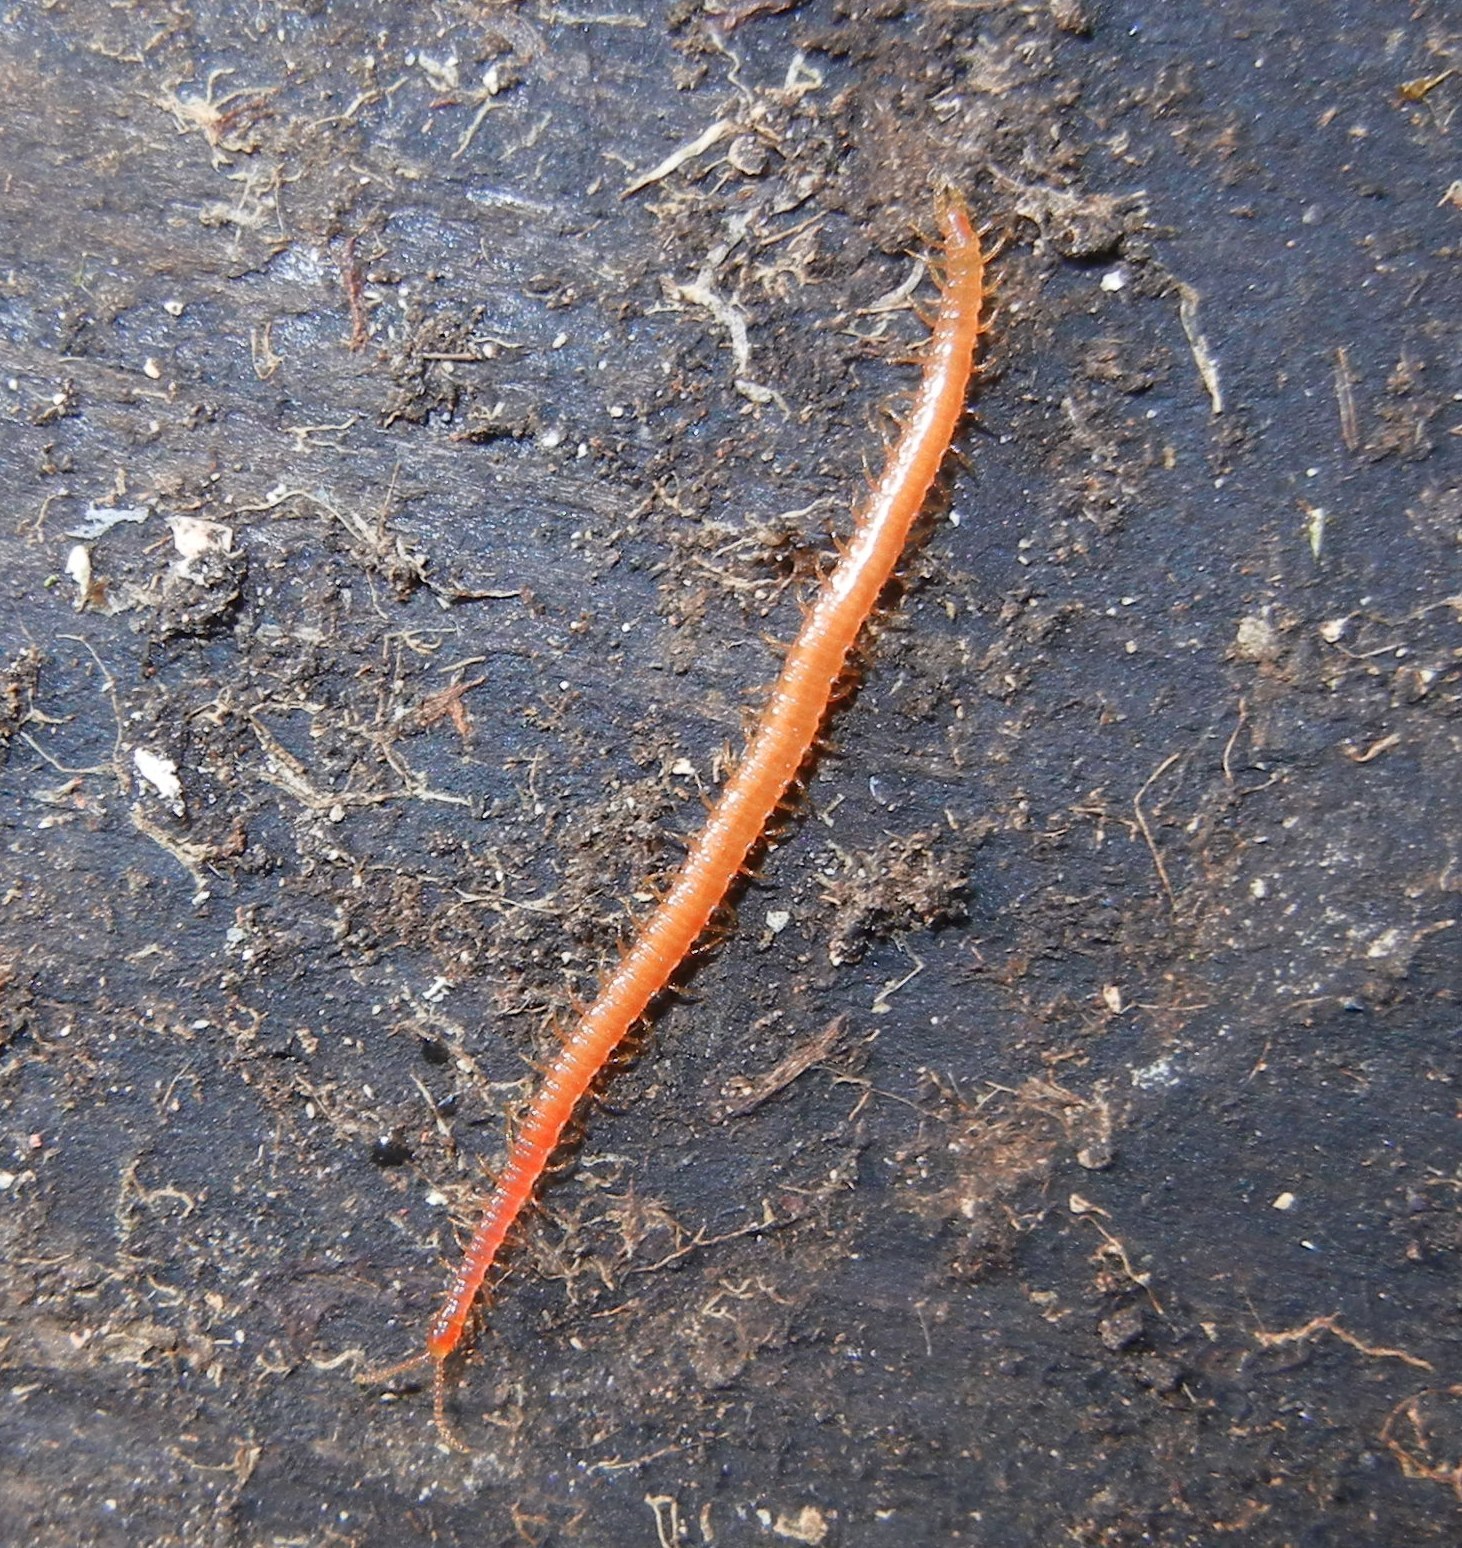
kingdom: Animalia
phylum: Arthropoda
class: Chilopoda
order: Geophilomorpha
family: Linotaeniidae
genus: Strigamia
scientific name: Strigamia acuminata
